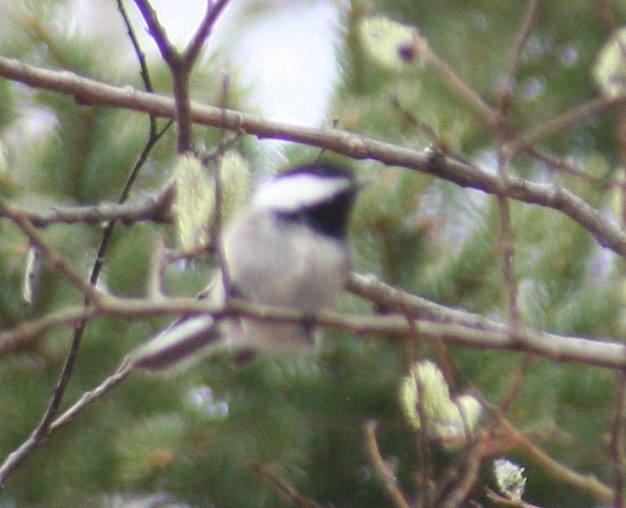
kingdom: Animalia
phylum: Chordata
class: Aves
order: Passeriformes
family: Paridae
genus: Poecile
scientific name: Poecile atricapillus
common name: Black-capped chickadee
